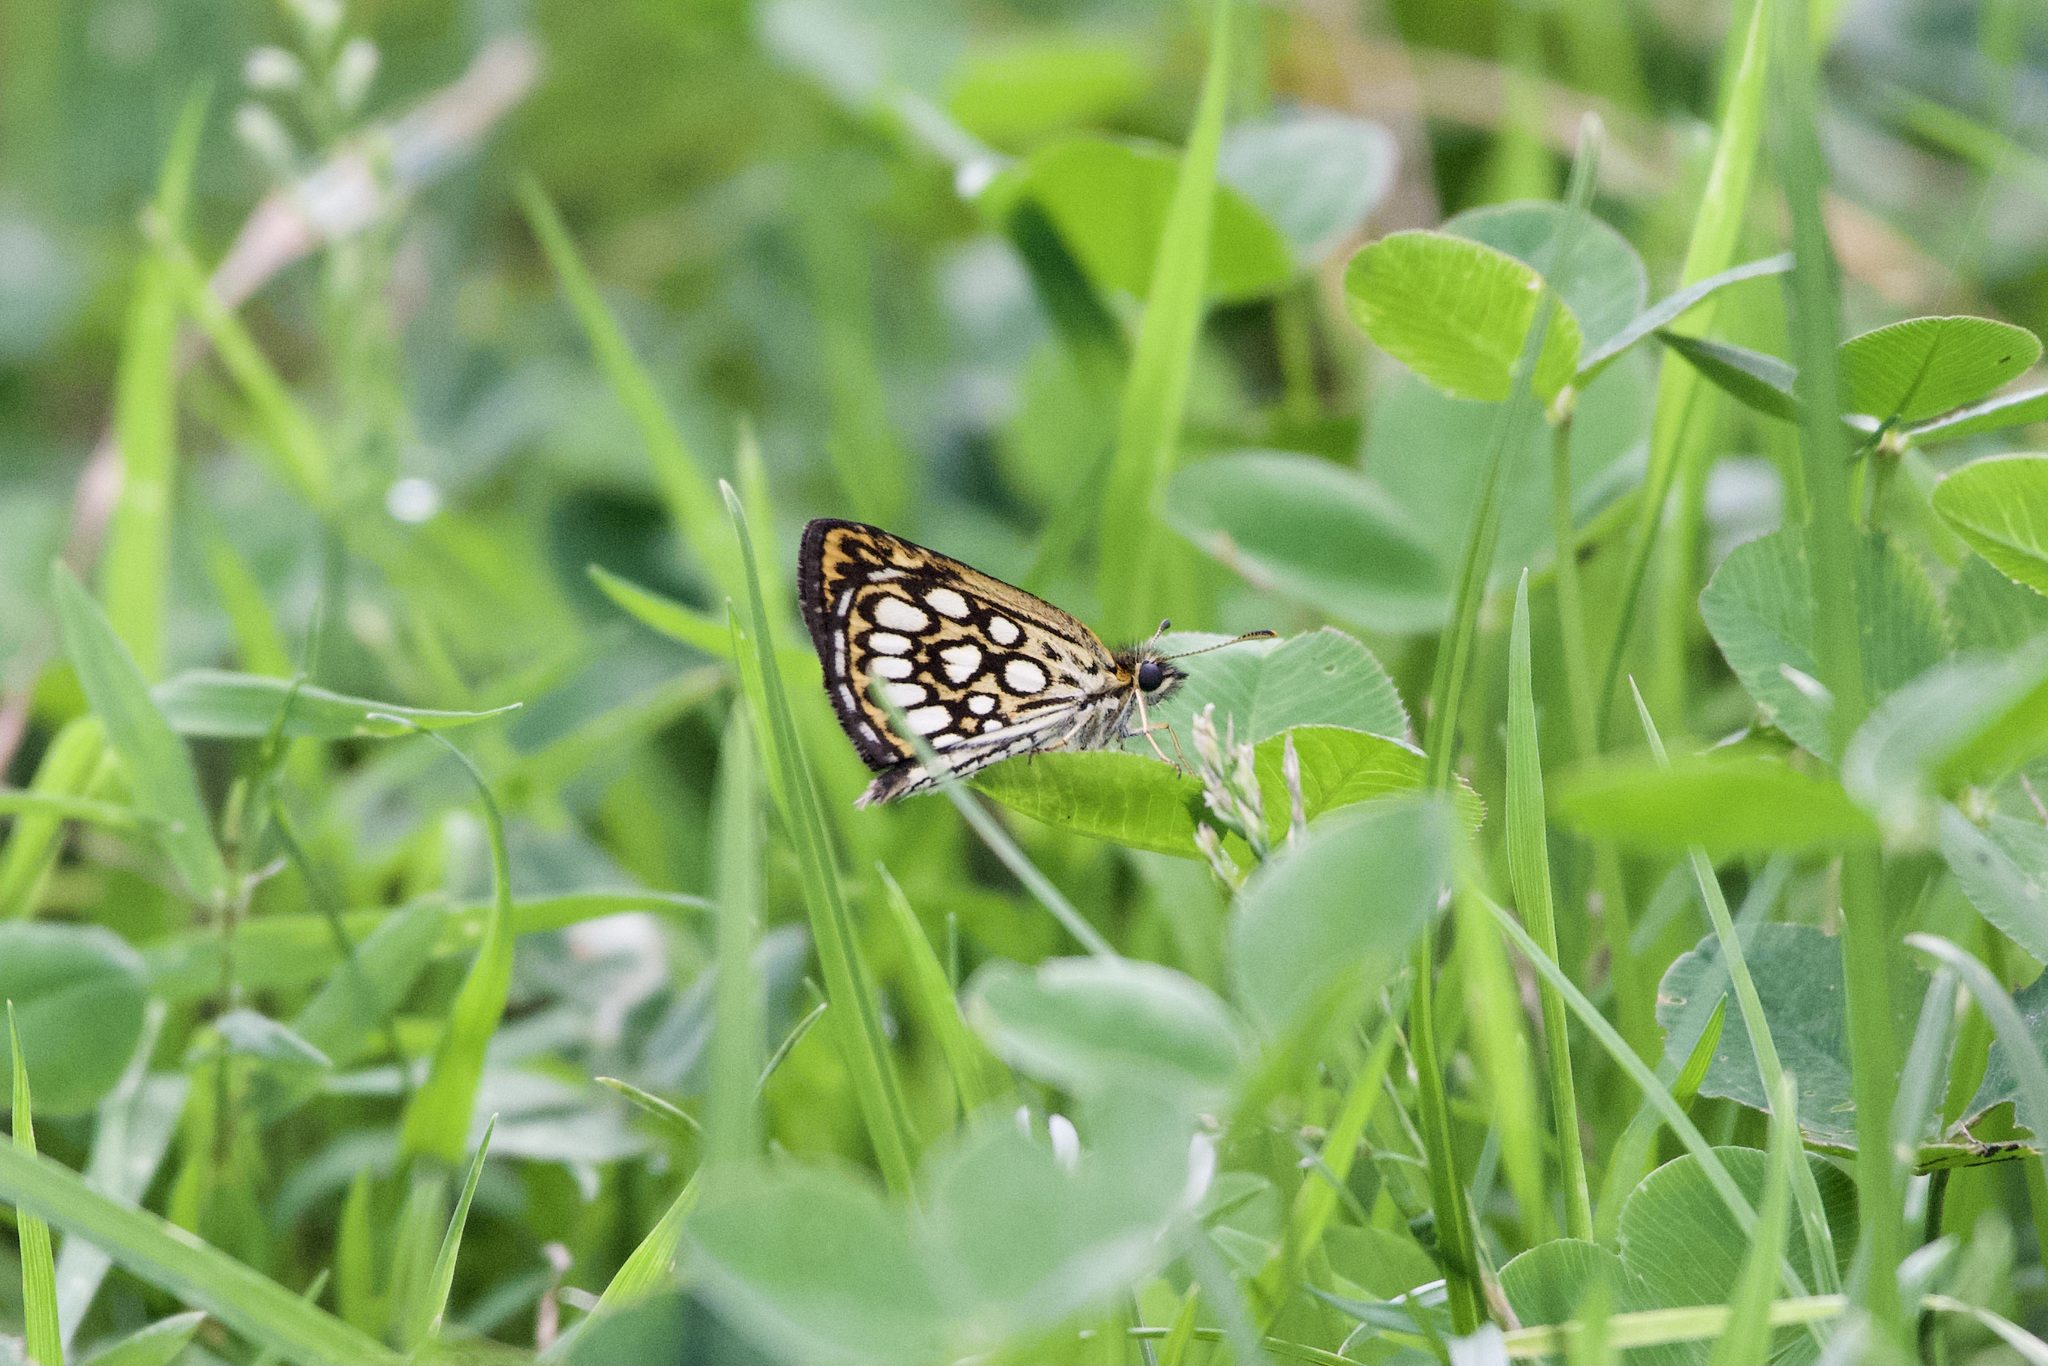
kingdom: Animalia
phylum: Arthropoda
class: Insecta
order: Lepidoptera
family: Hesperiidae
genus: Heteropterus
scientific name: Heteropterus morpheus
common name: Large chequered skipper
